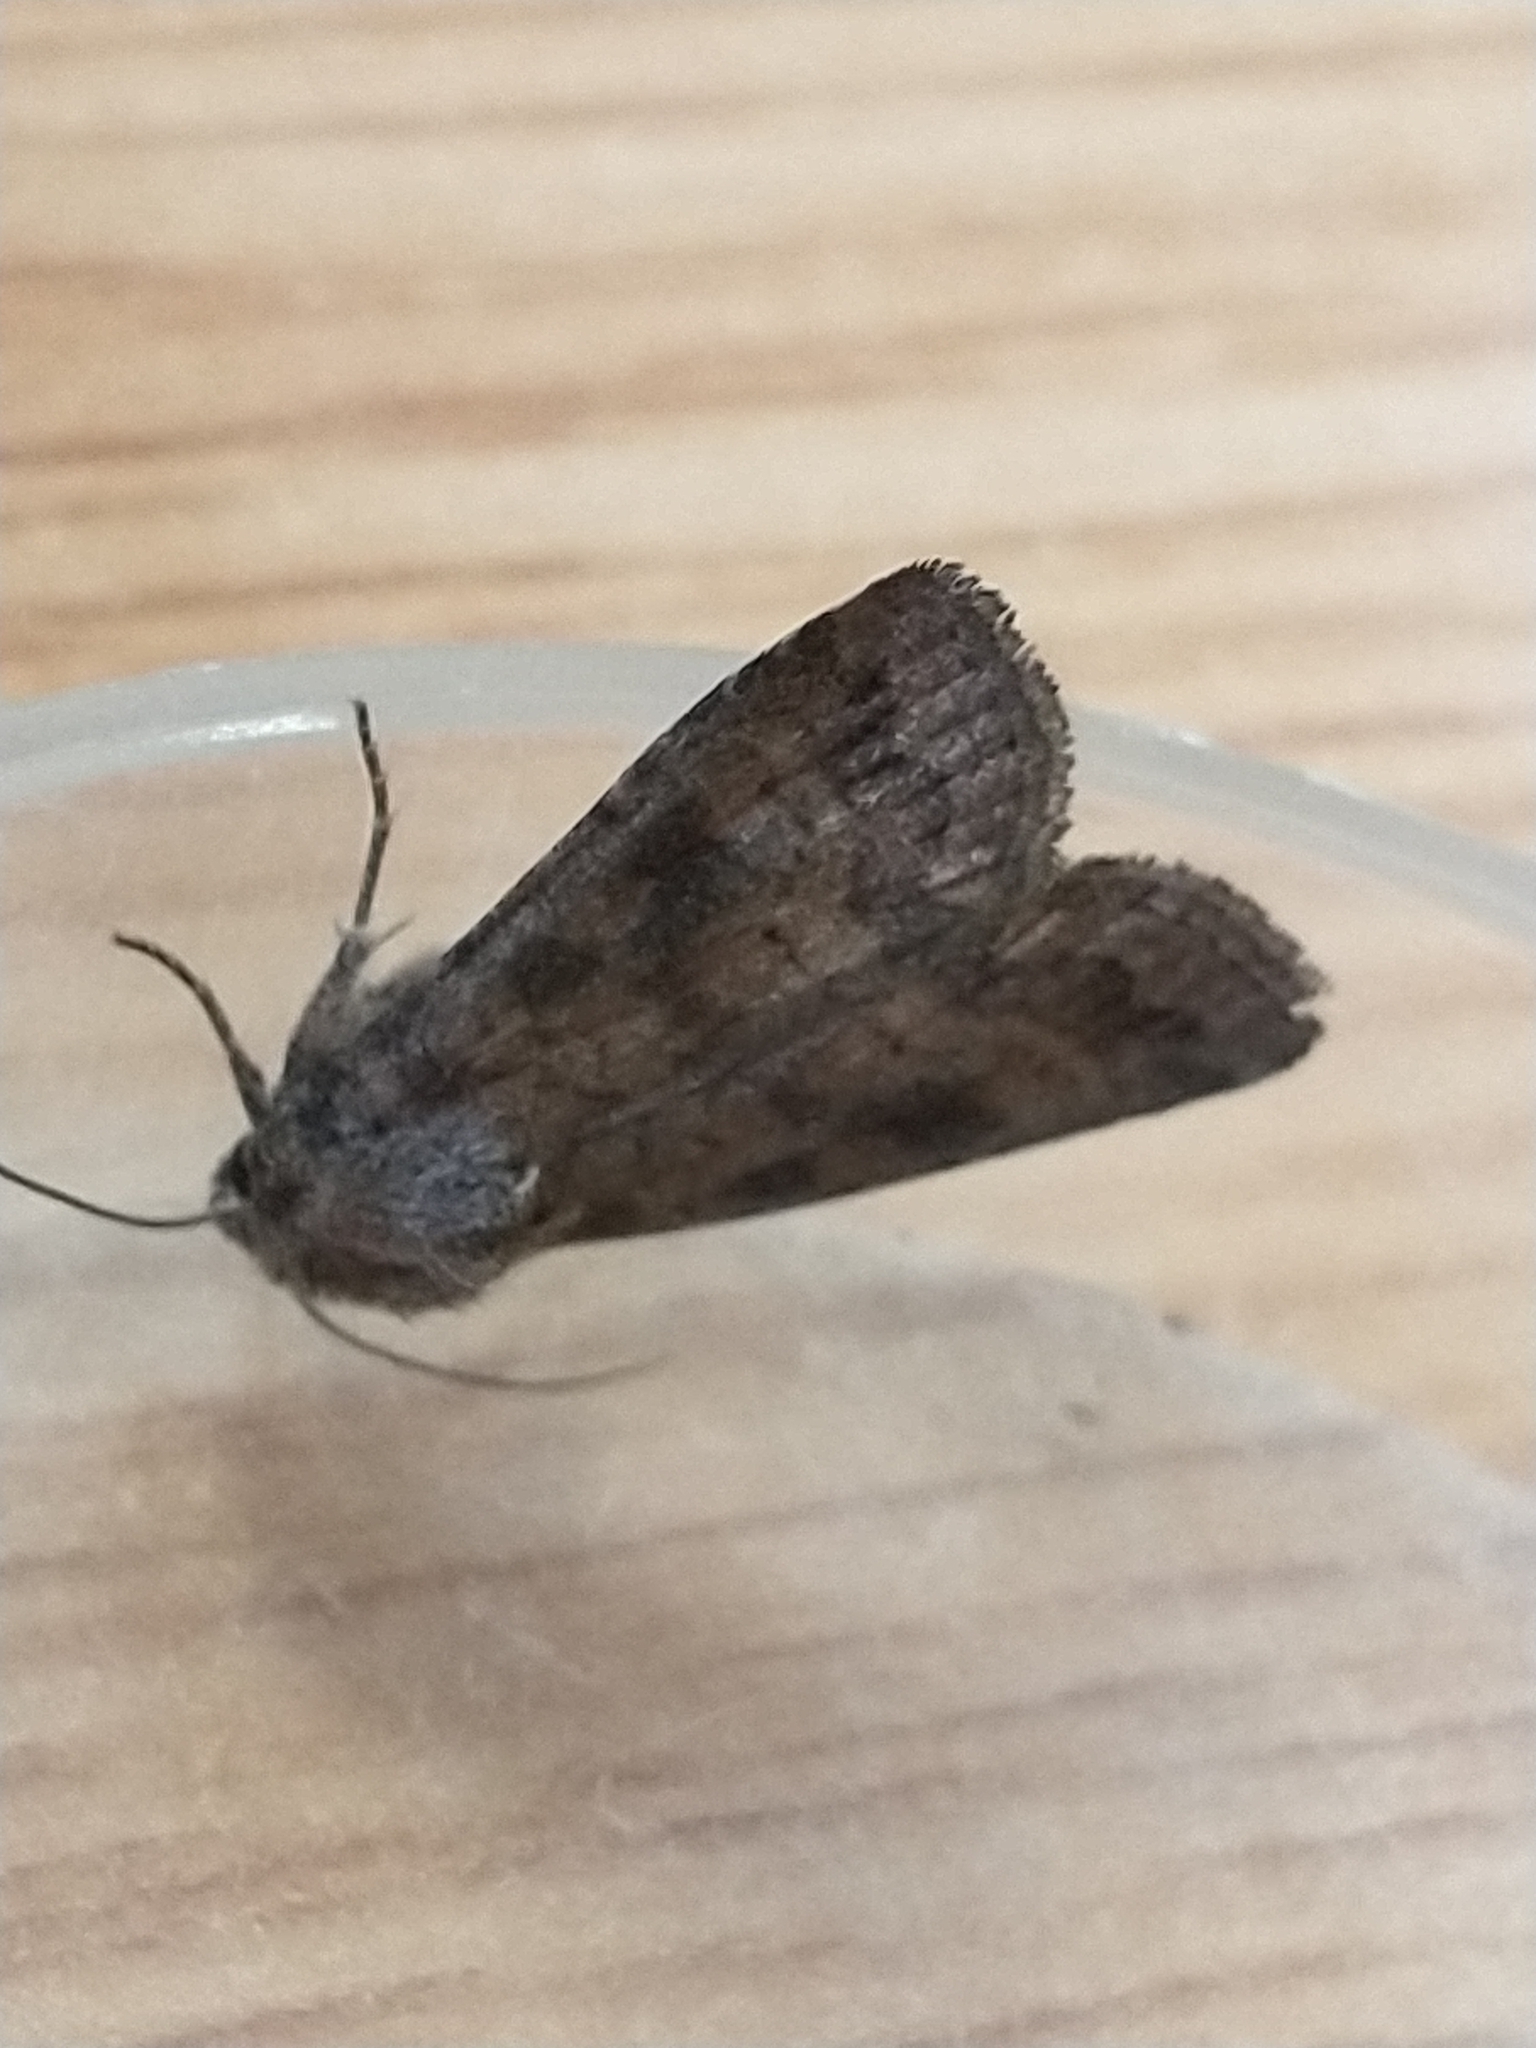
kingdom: Animalia
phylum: Arthropoda
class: Insecta
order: Lepidoptera
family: Noctuidae
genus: Caradrina
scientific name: Caradrina morpheus
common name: Mottled rustic
